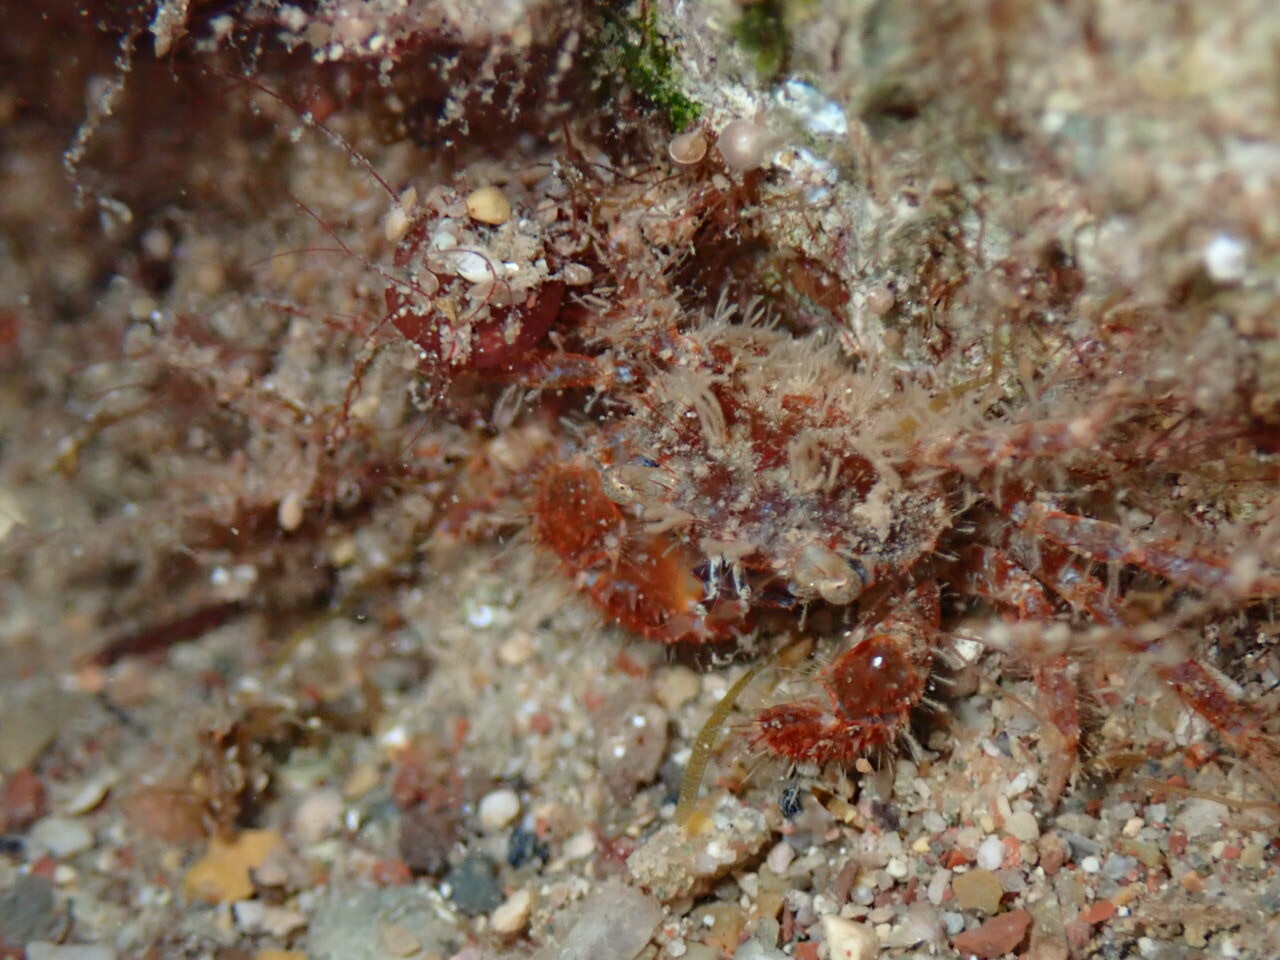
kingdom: Animalia
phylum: Arthropoda
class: Malacostraca
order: Decapoda
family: Pilumnidae
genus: Pilumnus
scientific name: Pilumnus hirtellus
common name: Hairy crab
